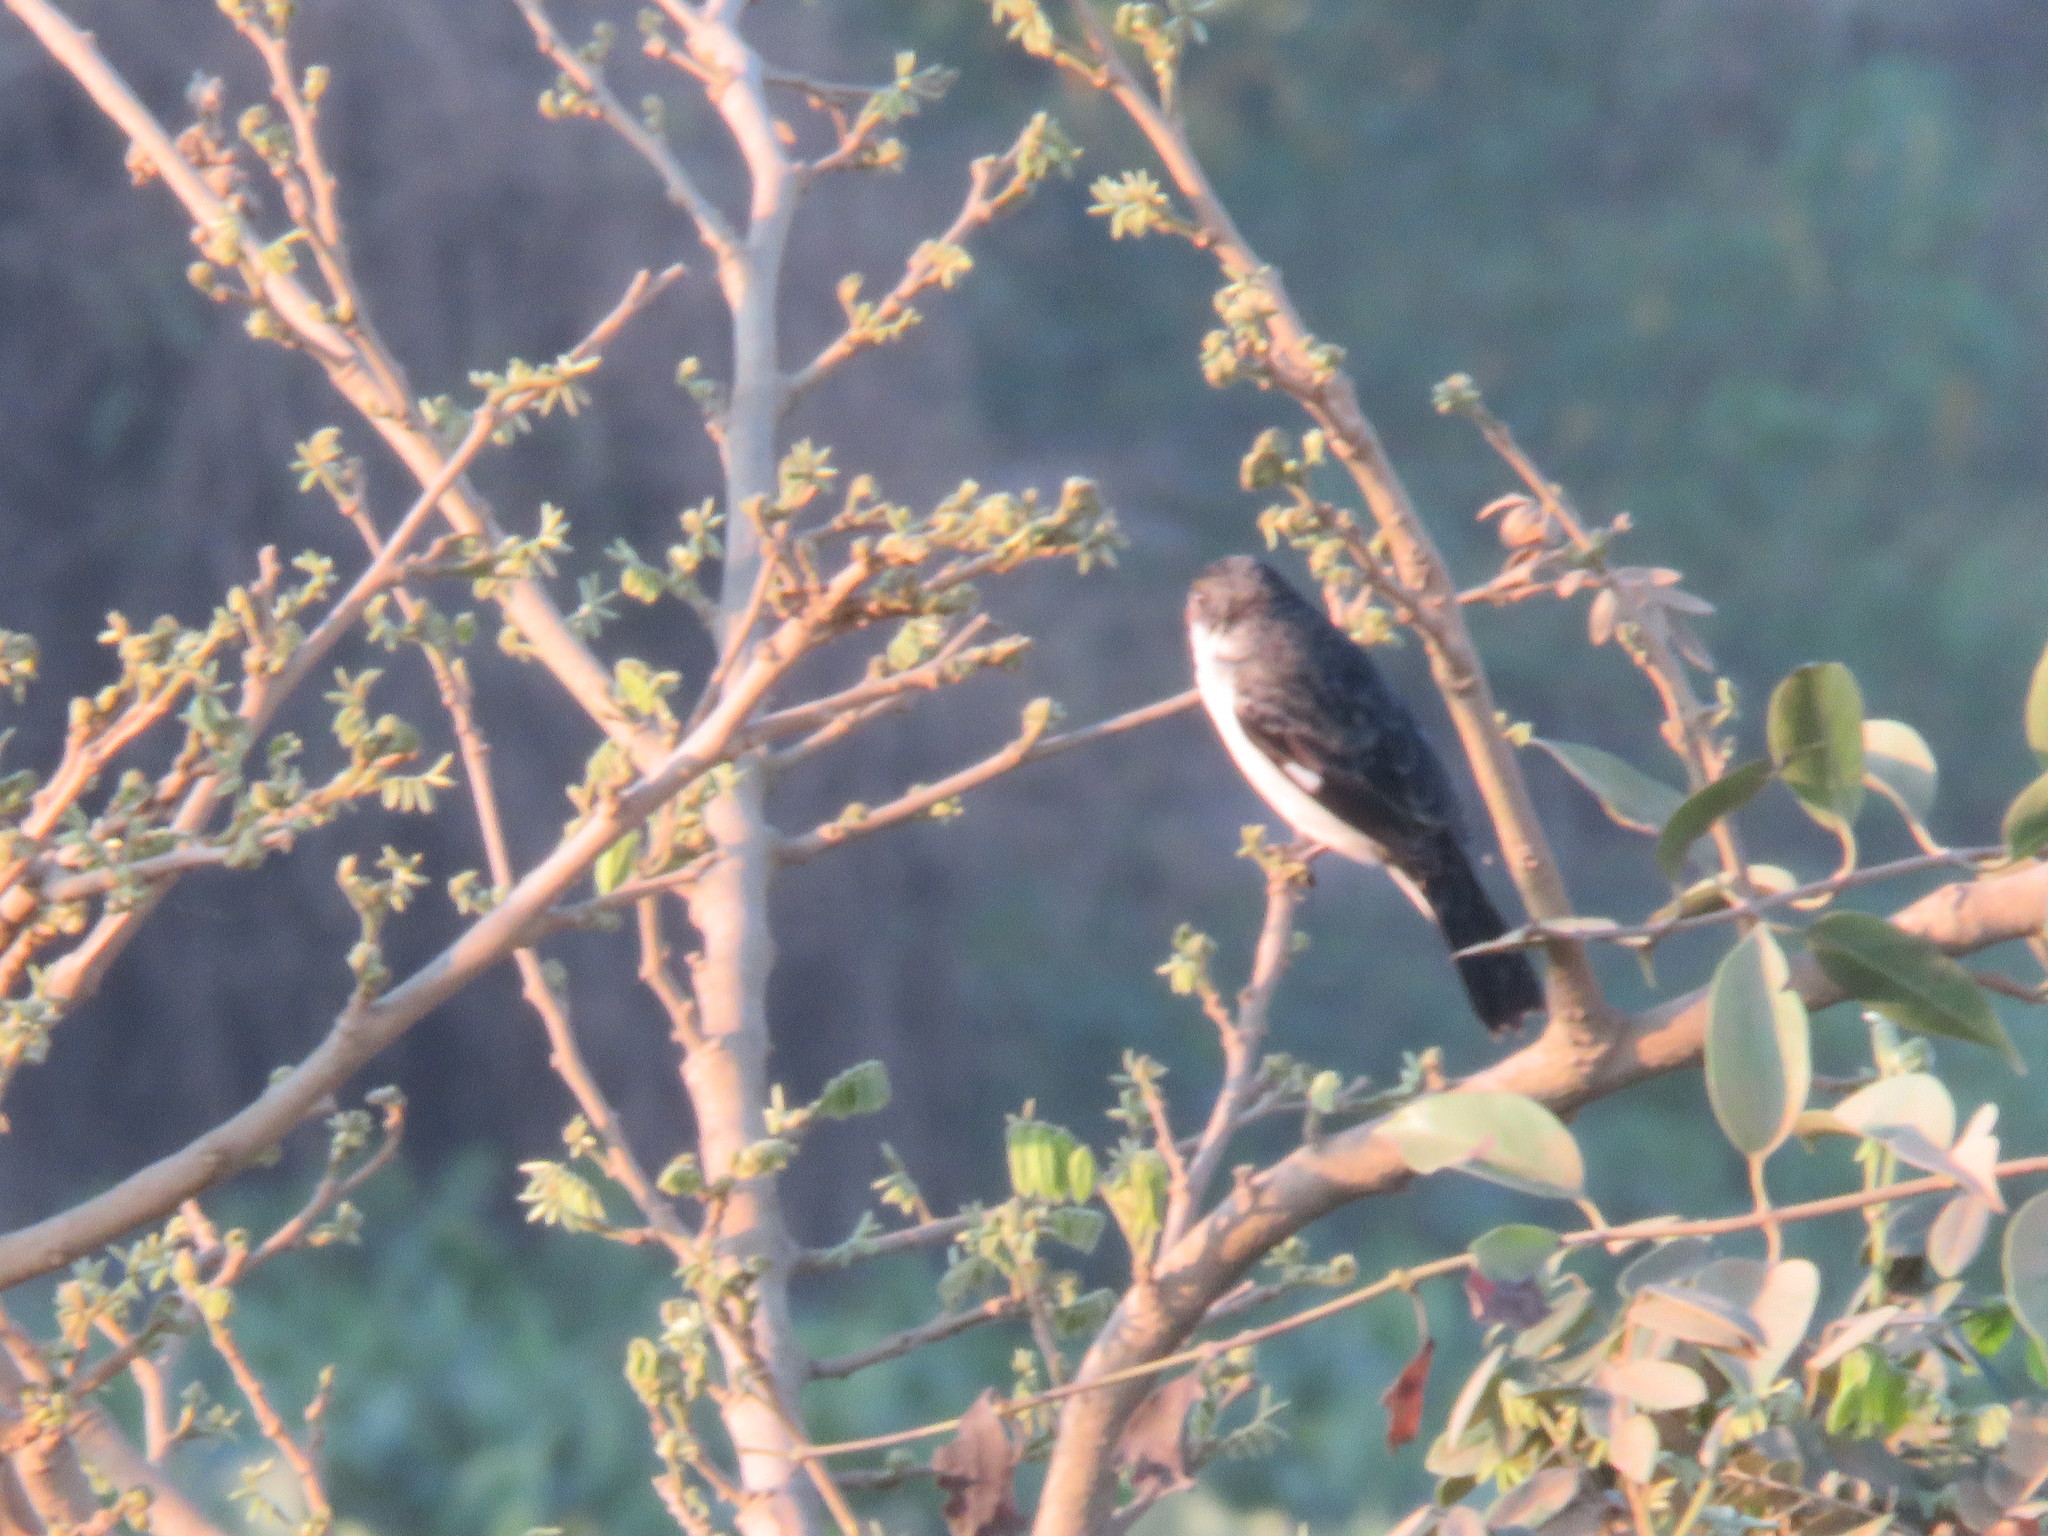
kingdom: Animalia
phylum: Chordata
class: Aves
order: Passeriformes
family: Thraupidae
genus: Sporophila
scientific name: Sporophila leucoptera
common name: White-bellied seedeater
